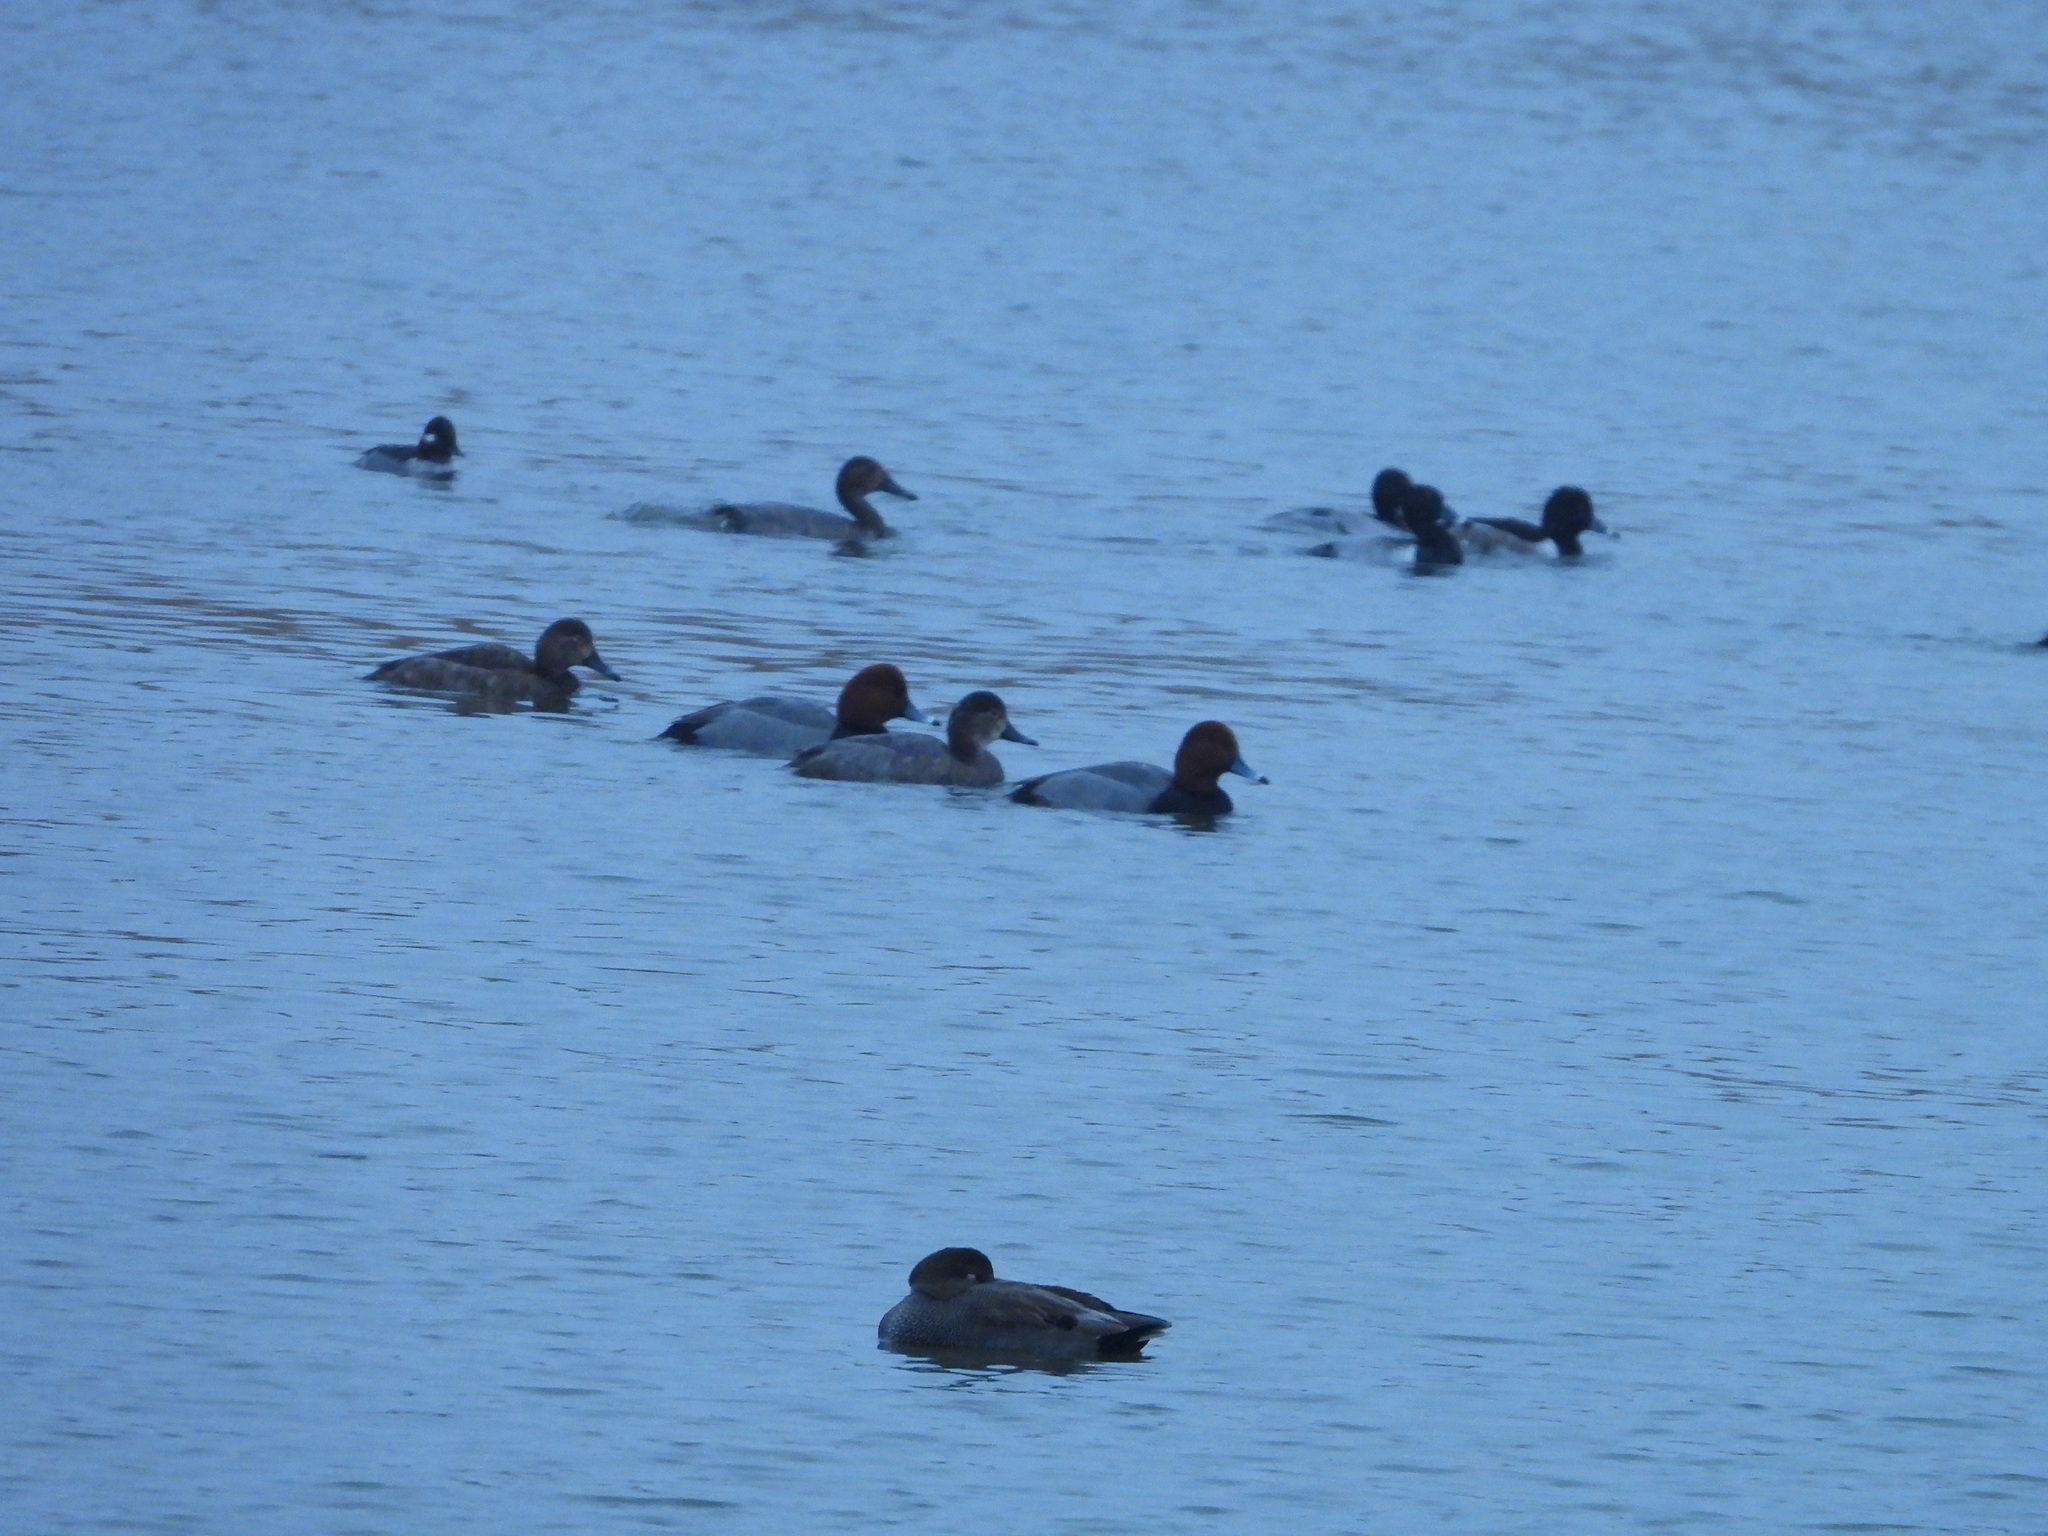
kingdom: Animalia
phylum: Chordata
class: Aves
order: Anseriformes
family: Anatidae
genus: Aythya
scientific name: Aythya americana
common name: Redhead
